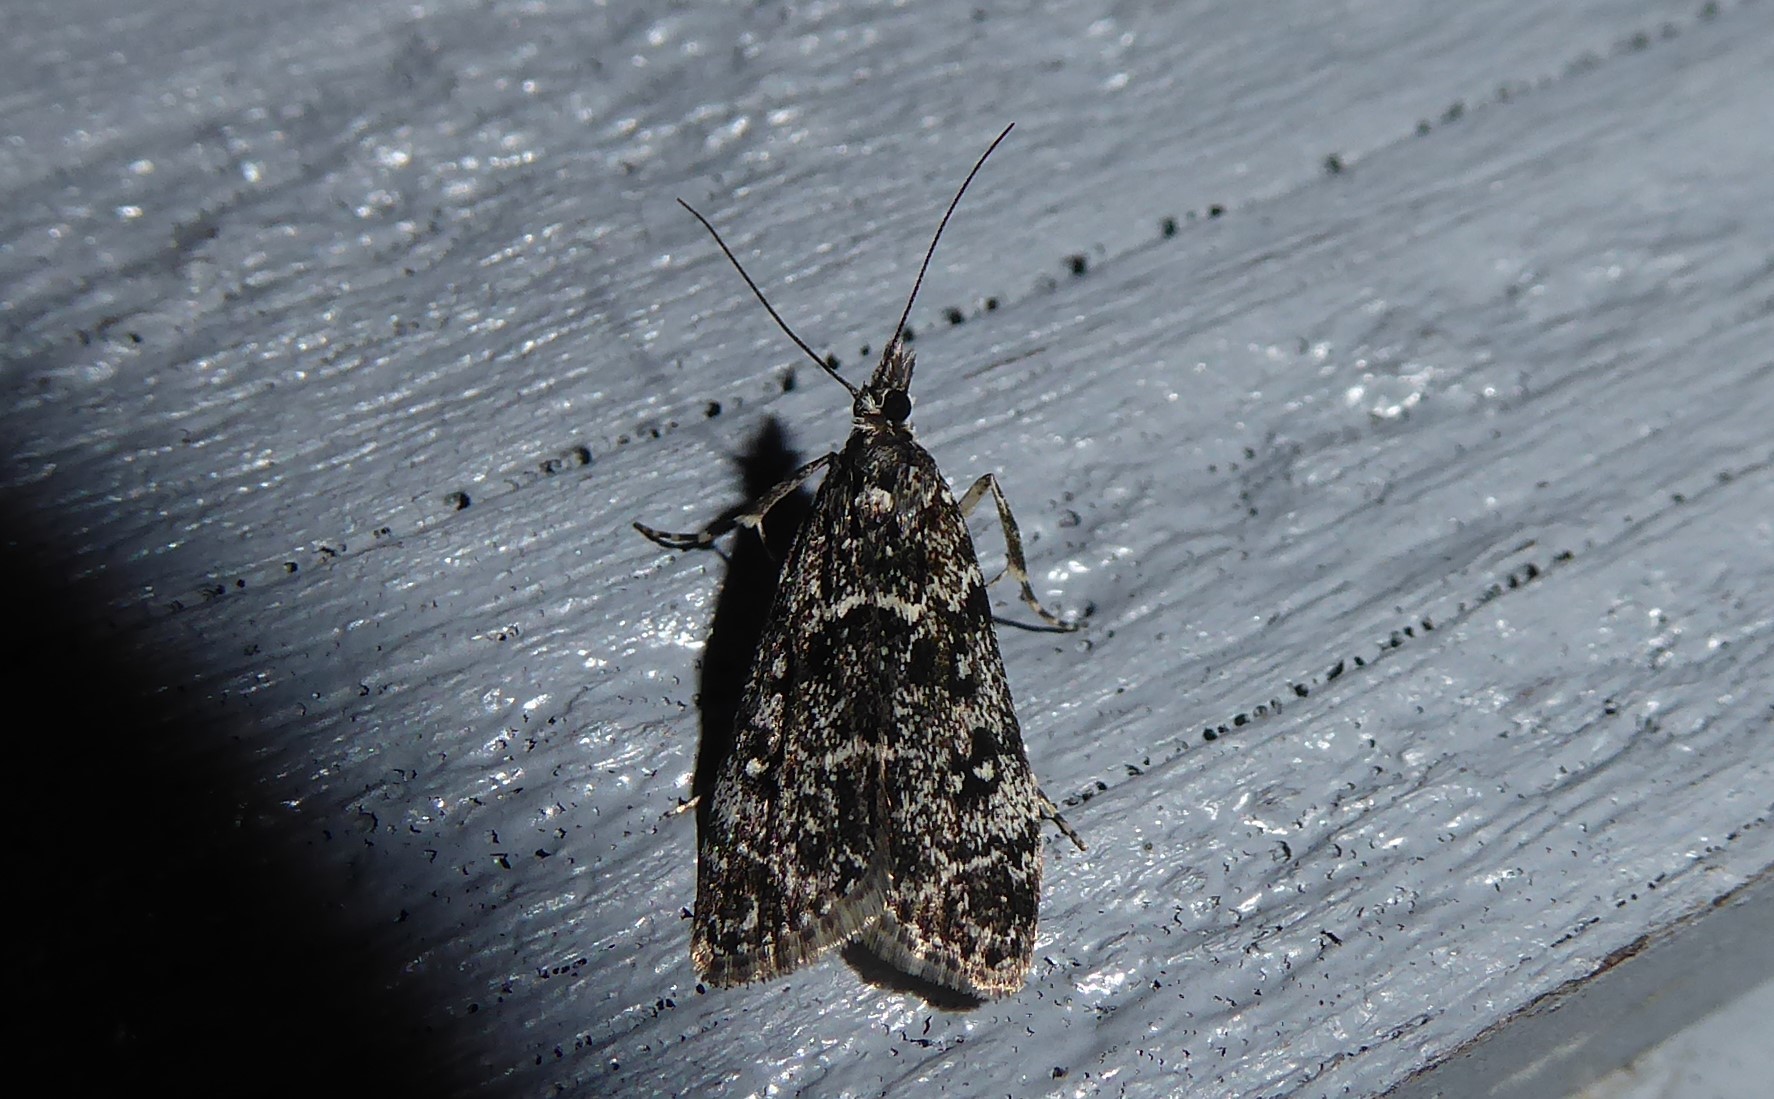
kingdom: Animalia
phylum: Arthropoda
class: Insecta
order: Lepidoptera
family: Crambidae
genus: Eudonia
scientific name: Eudonia philerga
